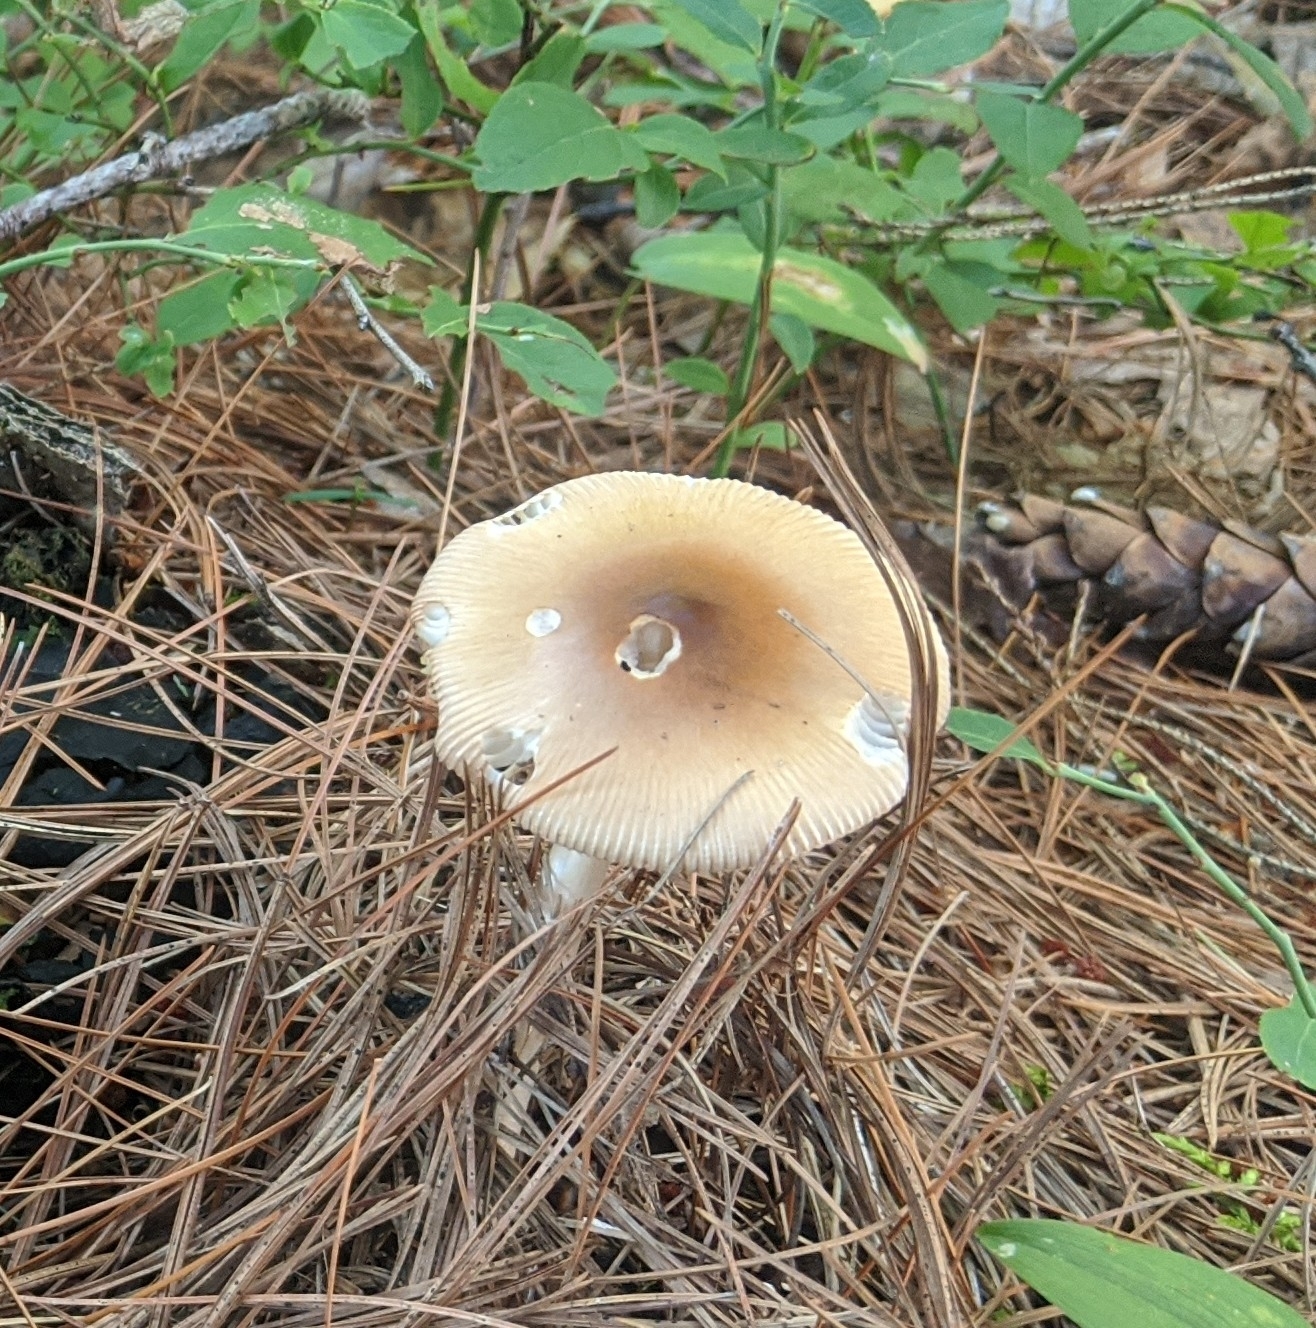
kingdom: Fungi
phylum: Basidiomycota
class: Agaricomycetes
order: Agaricales
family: Amanitaceae
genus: Amanita
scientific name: Amanita fulva
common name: Tawny grisette
